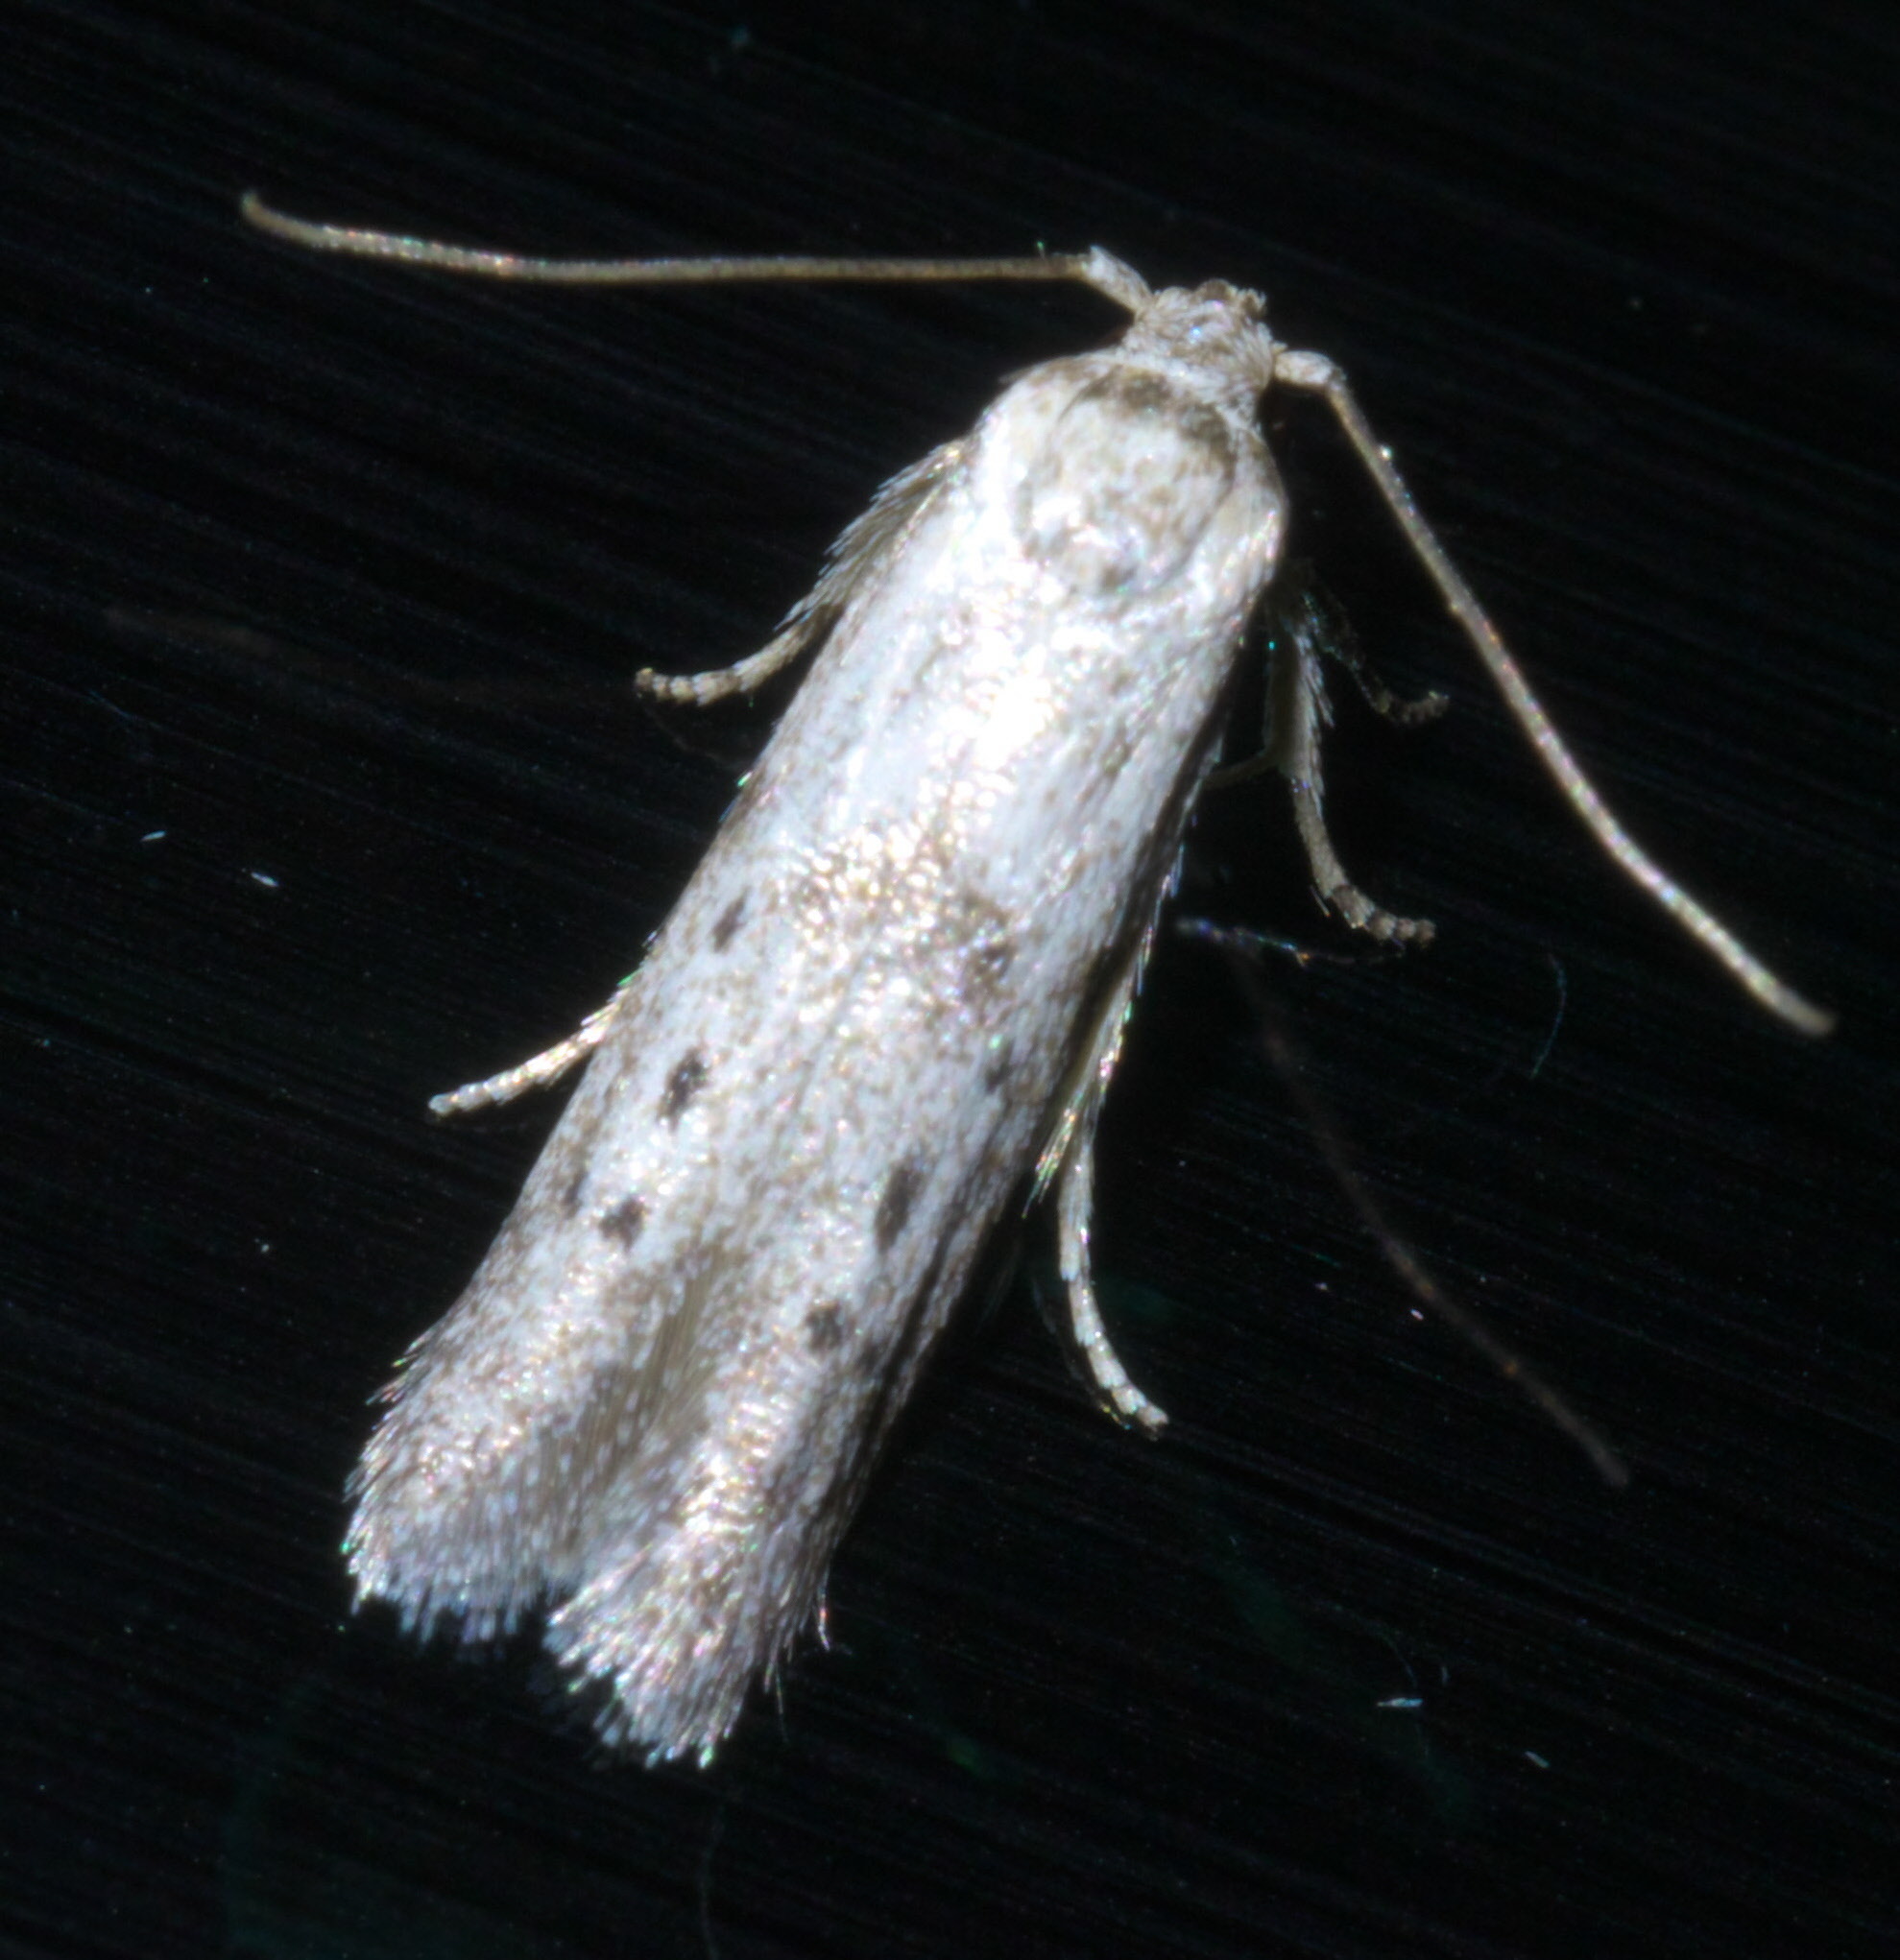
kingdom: Animalia
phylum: Arthropoda
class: Insecta
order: Lepidoptera
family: Blastobasidae
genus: Hypatopa
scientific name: Hypatopa punctiferella
